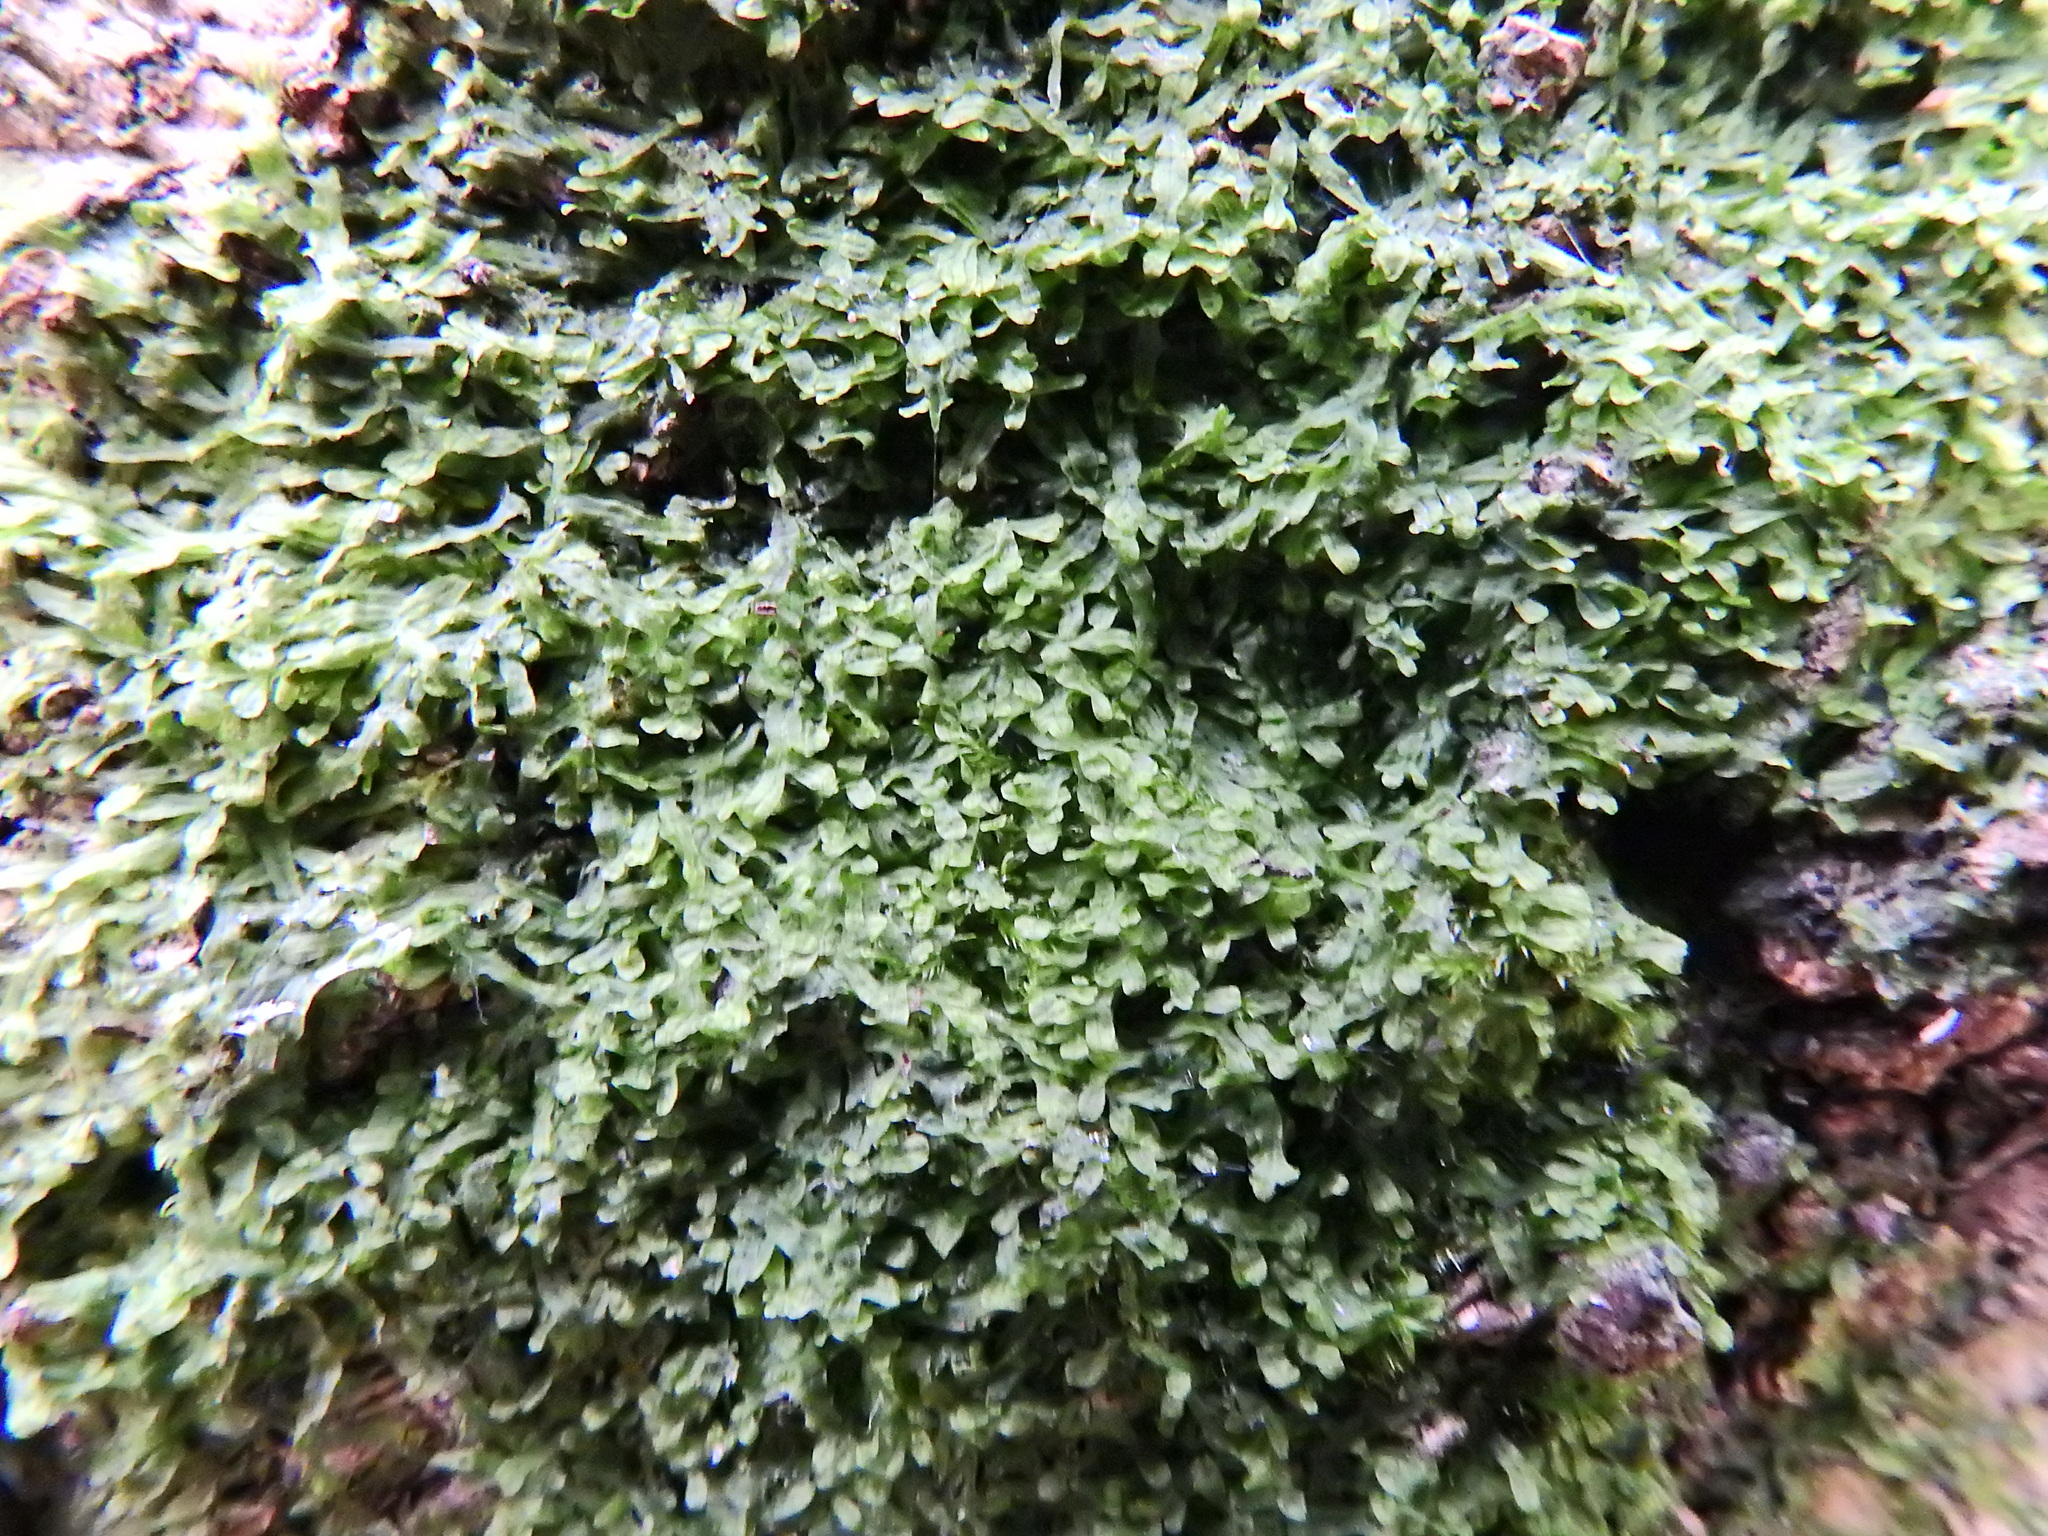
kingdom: Plantae
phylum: Marchantiophyta
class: Jungermanniopsida
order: Metzgeriales
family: Metzgeriaceae
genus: Metzgeria
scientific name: Metzgeria furcata
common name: Forked veilwort
